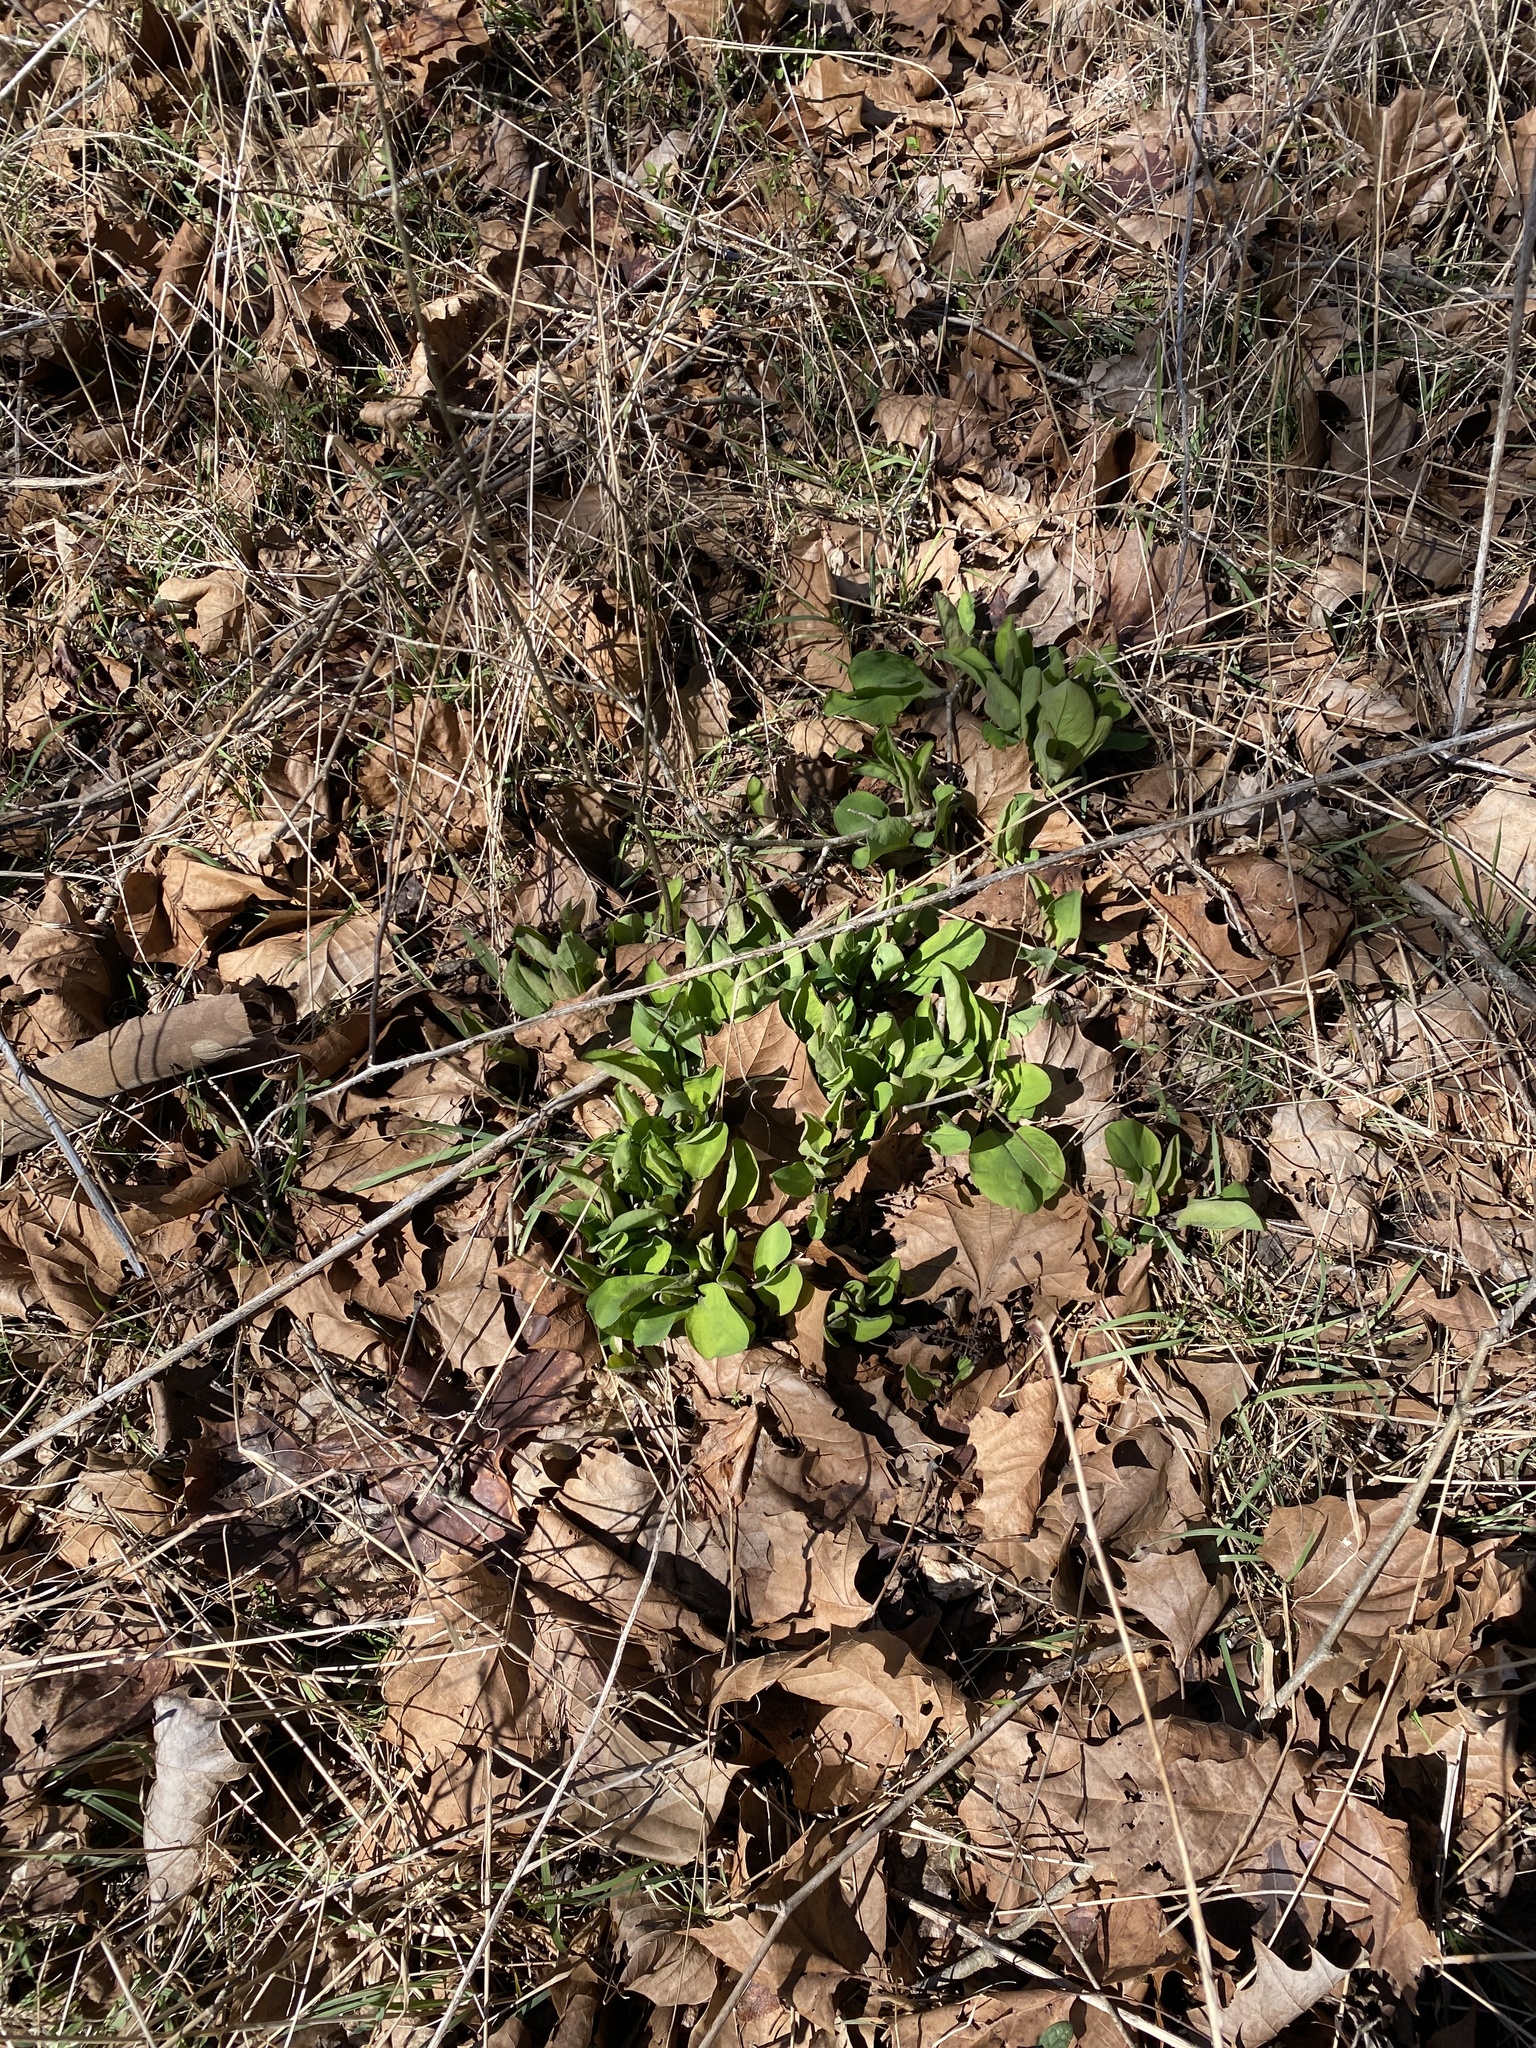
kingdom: Plantae
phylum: Tracheophyta
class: Magnoliopsida
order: Boraginales
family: Boraginaceae
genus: Mertensia
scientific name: Mertensia virginica
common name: Virginia bluebells
